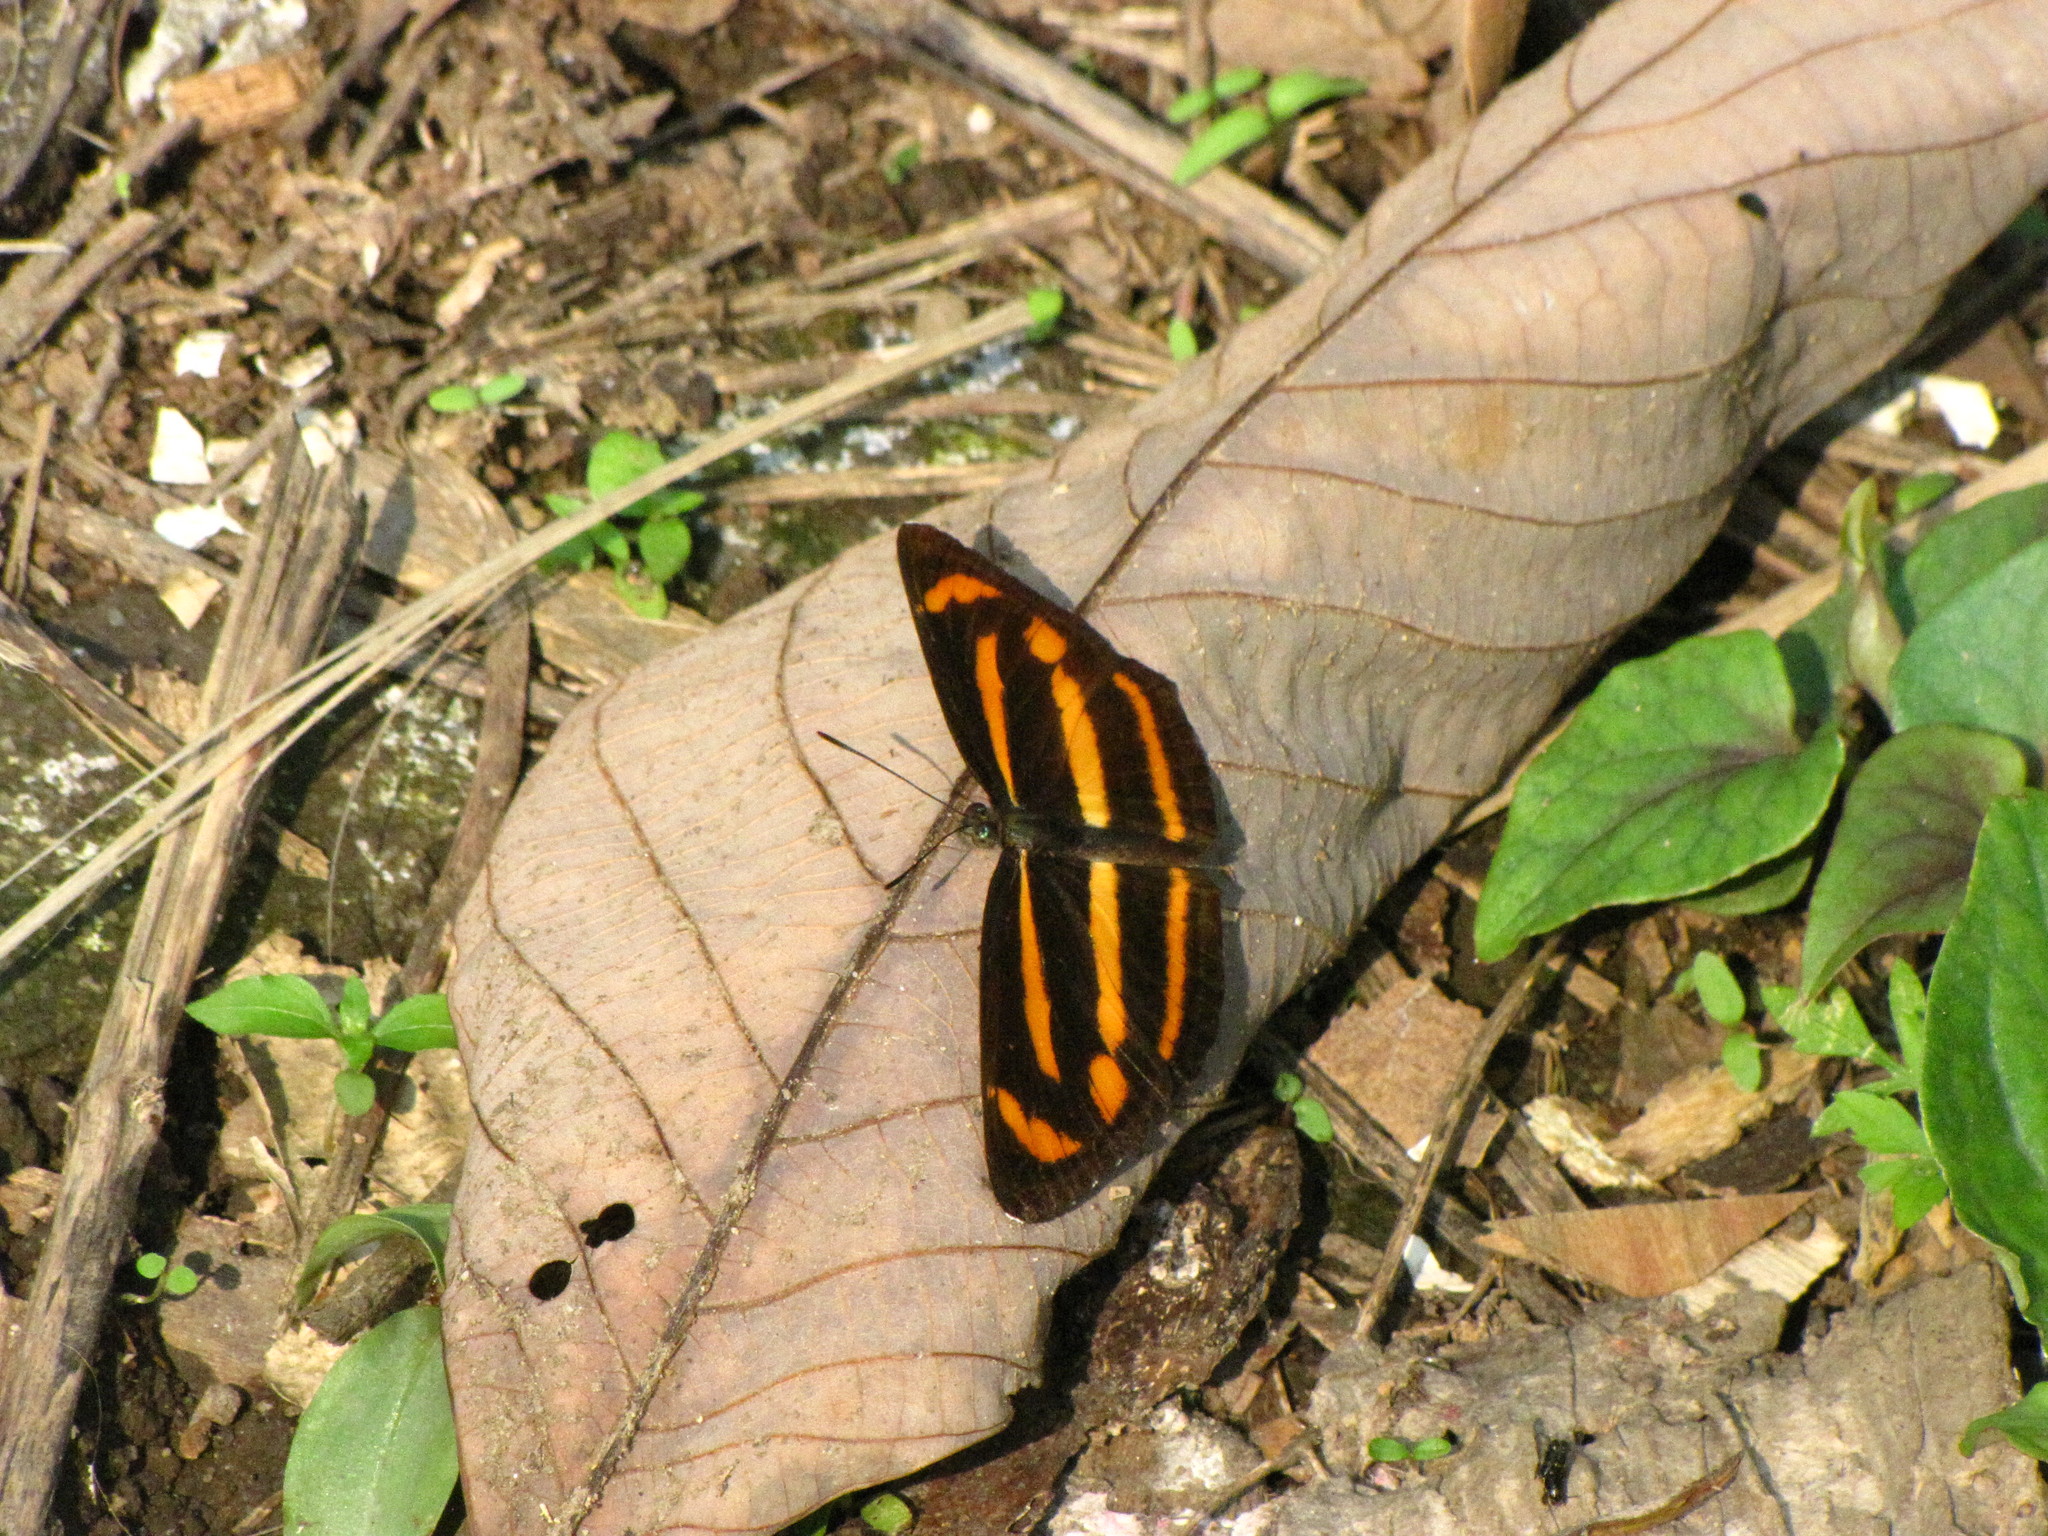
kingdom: Animalia
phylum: Arthropoda
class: Insecta
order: Lepidoptera
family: Nymphalidae
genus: Neptis
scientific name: Neptis radha
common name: Great yellow sailer
